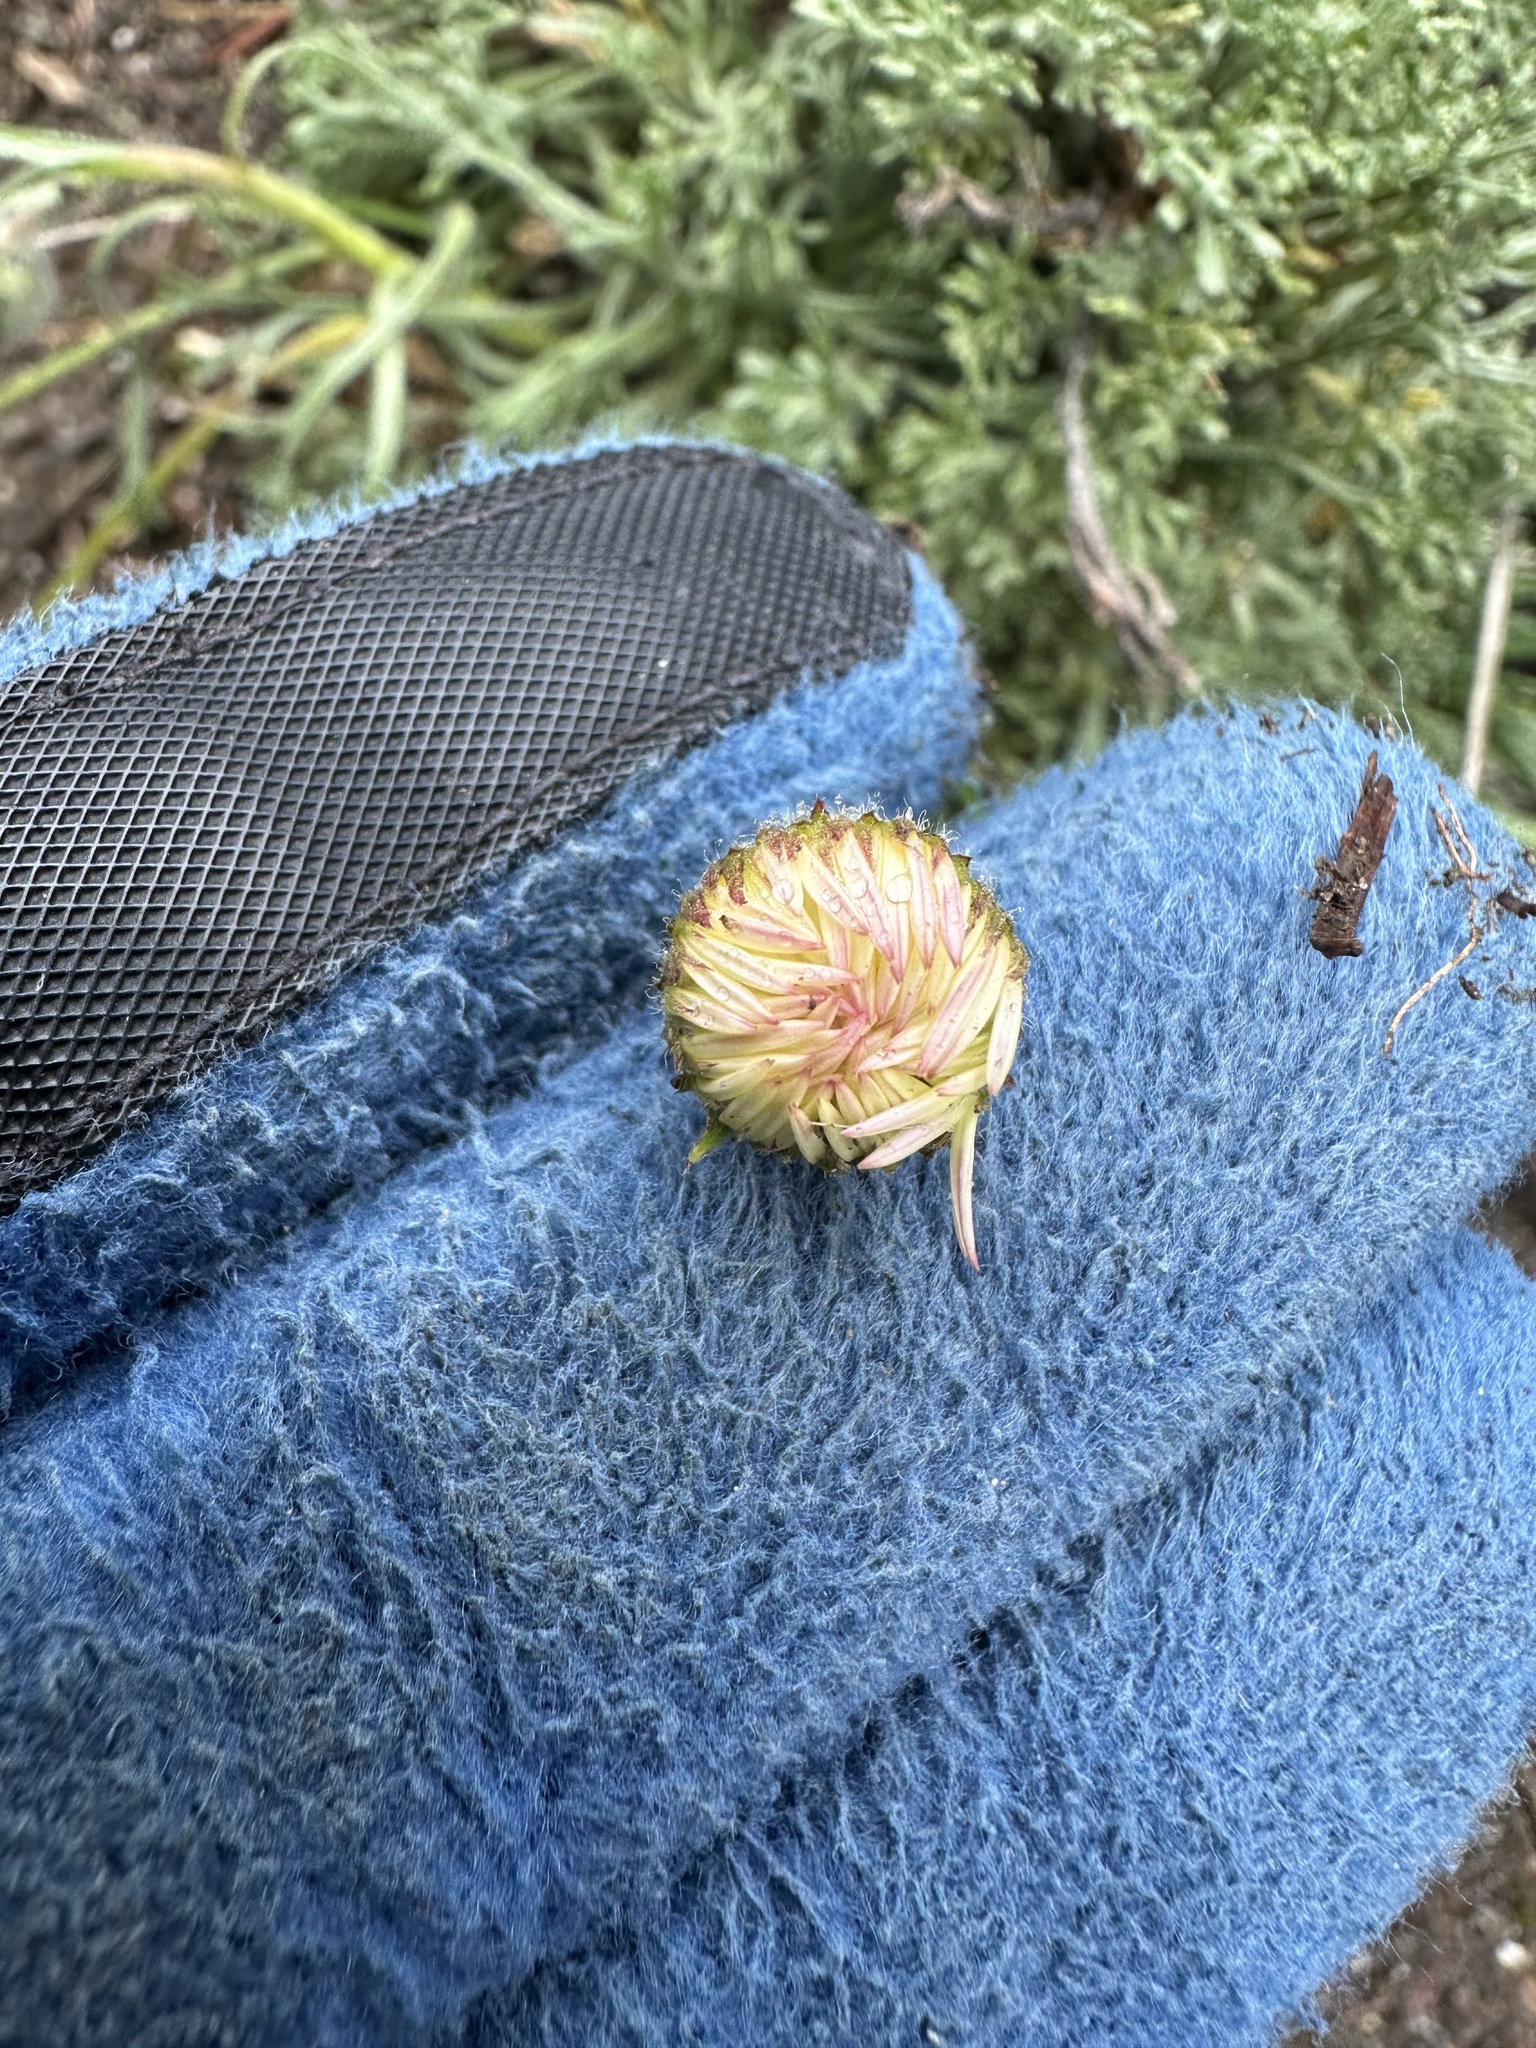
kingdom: Plantae
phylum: Tracheophyta
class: Magnoliopsida
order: Asterales
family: Asteraceae
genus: Erigeron
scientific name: Erigeron compositus
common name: Dwarf mountain fleabane
